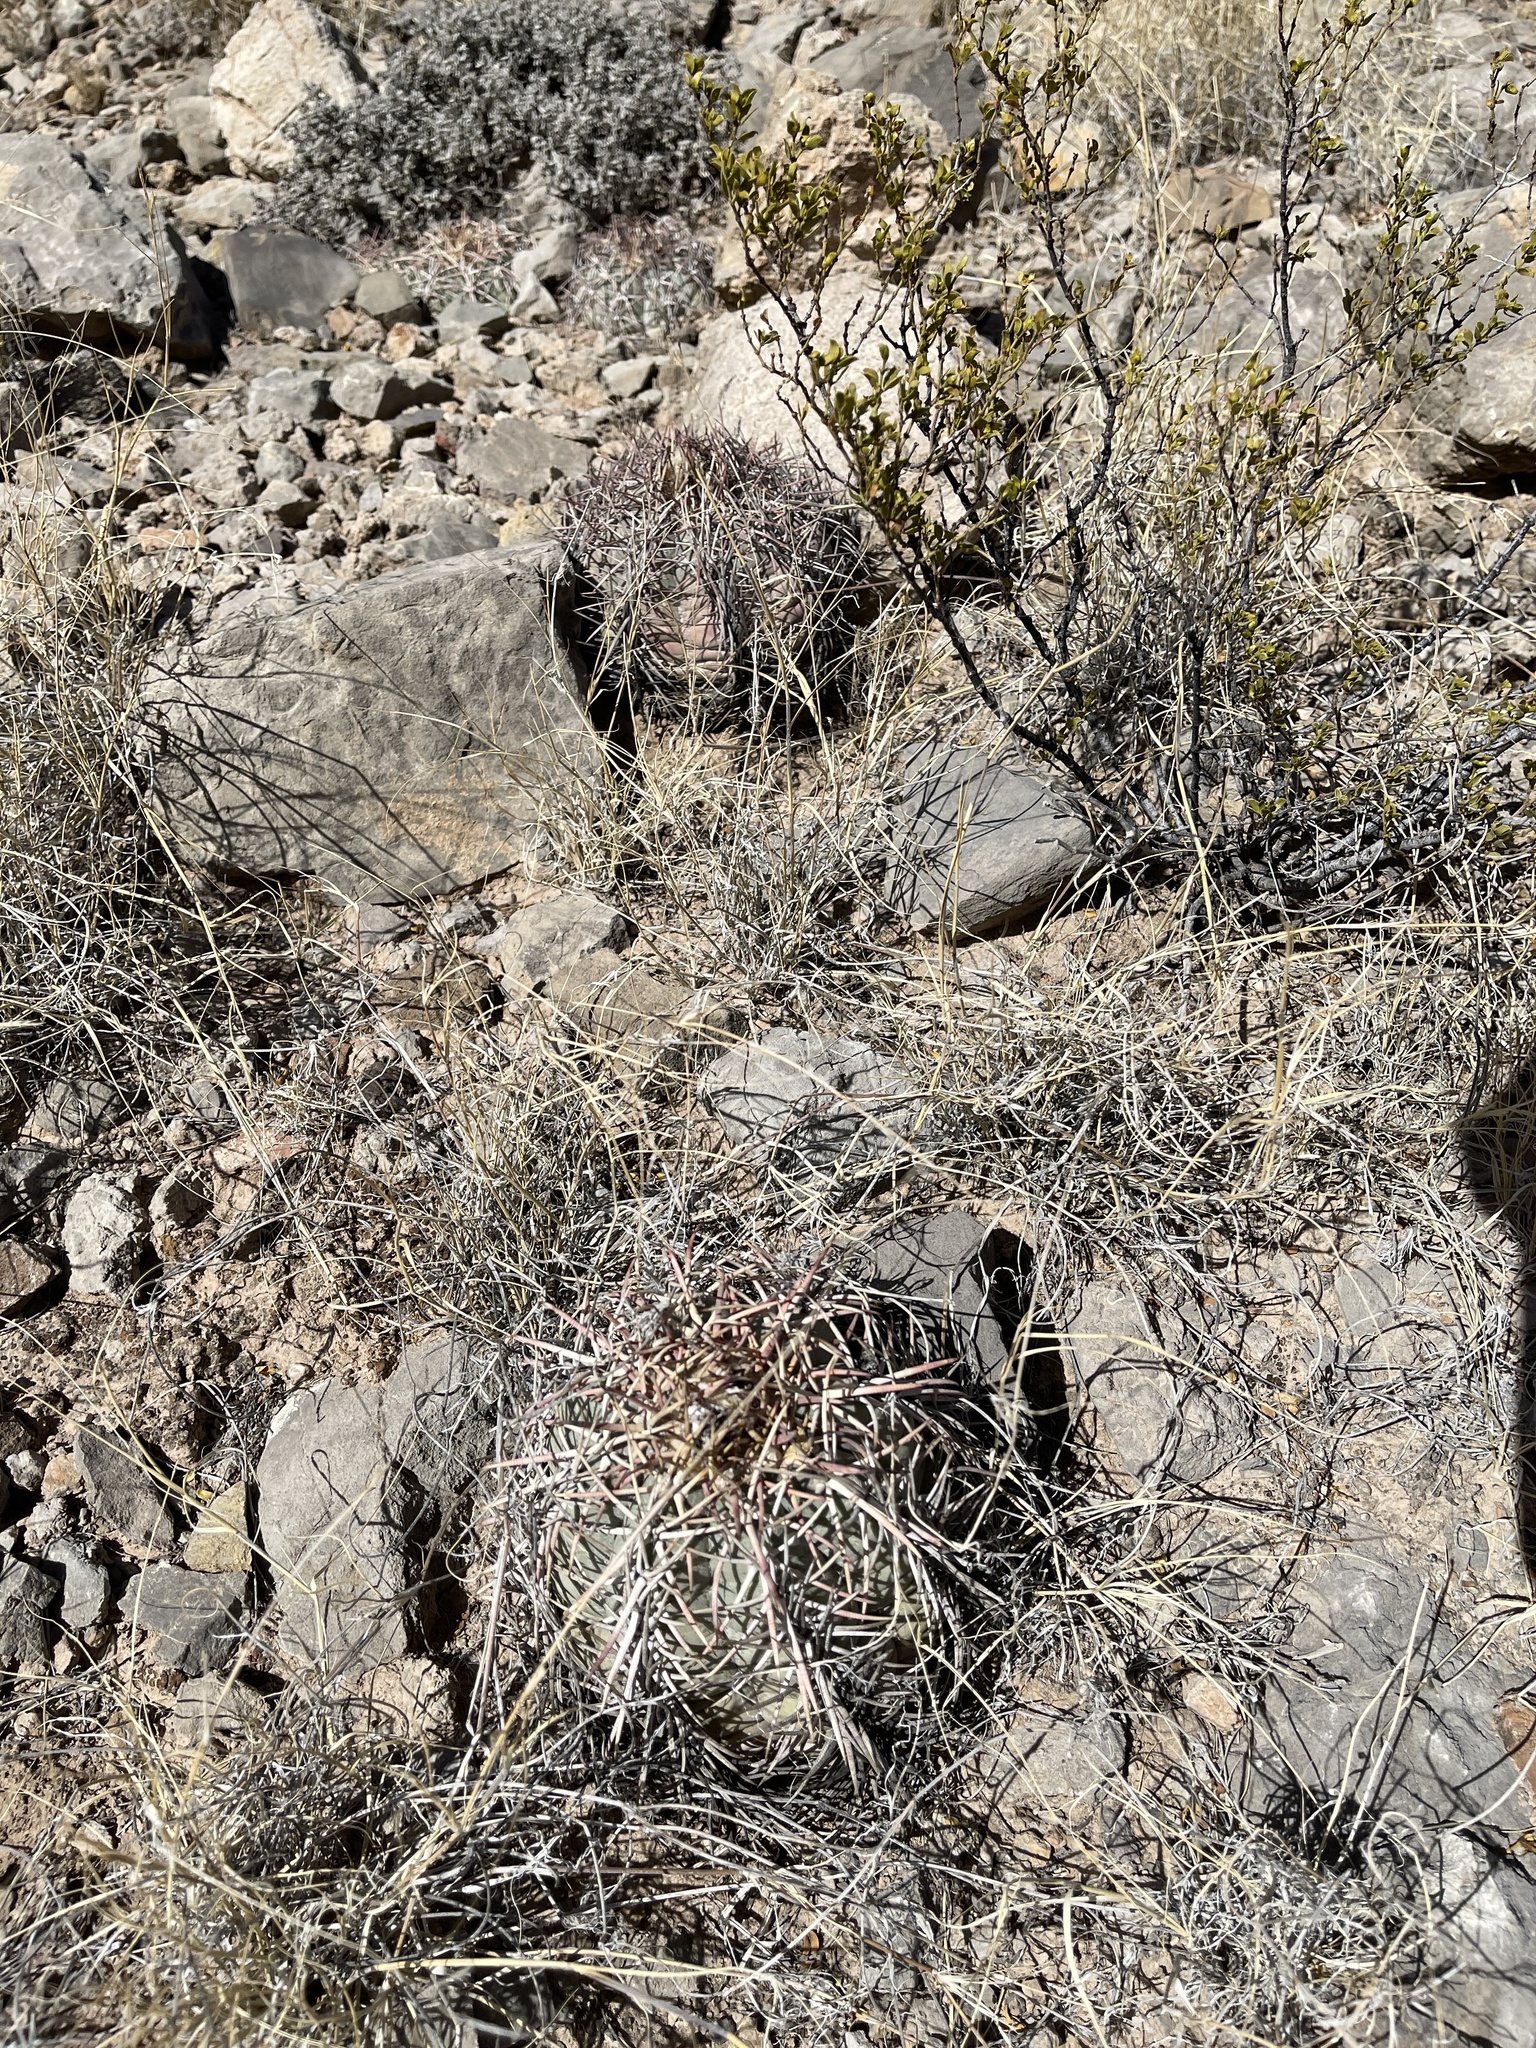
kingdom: Plantae
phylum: Tracheophyta
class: Magnoliopsida
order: Caryophyllales
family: Cactaceae
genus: Echinocactus
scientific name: Echinocactus horizonthalonius
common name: Devilshead
